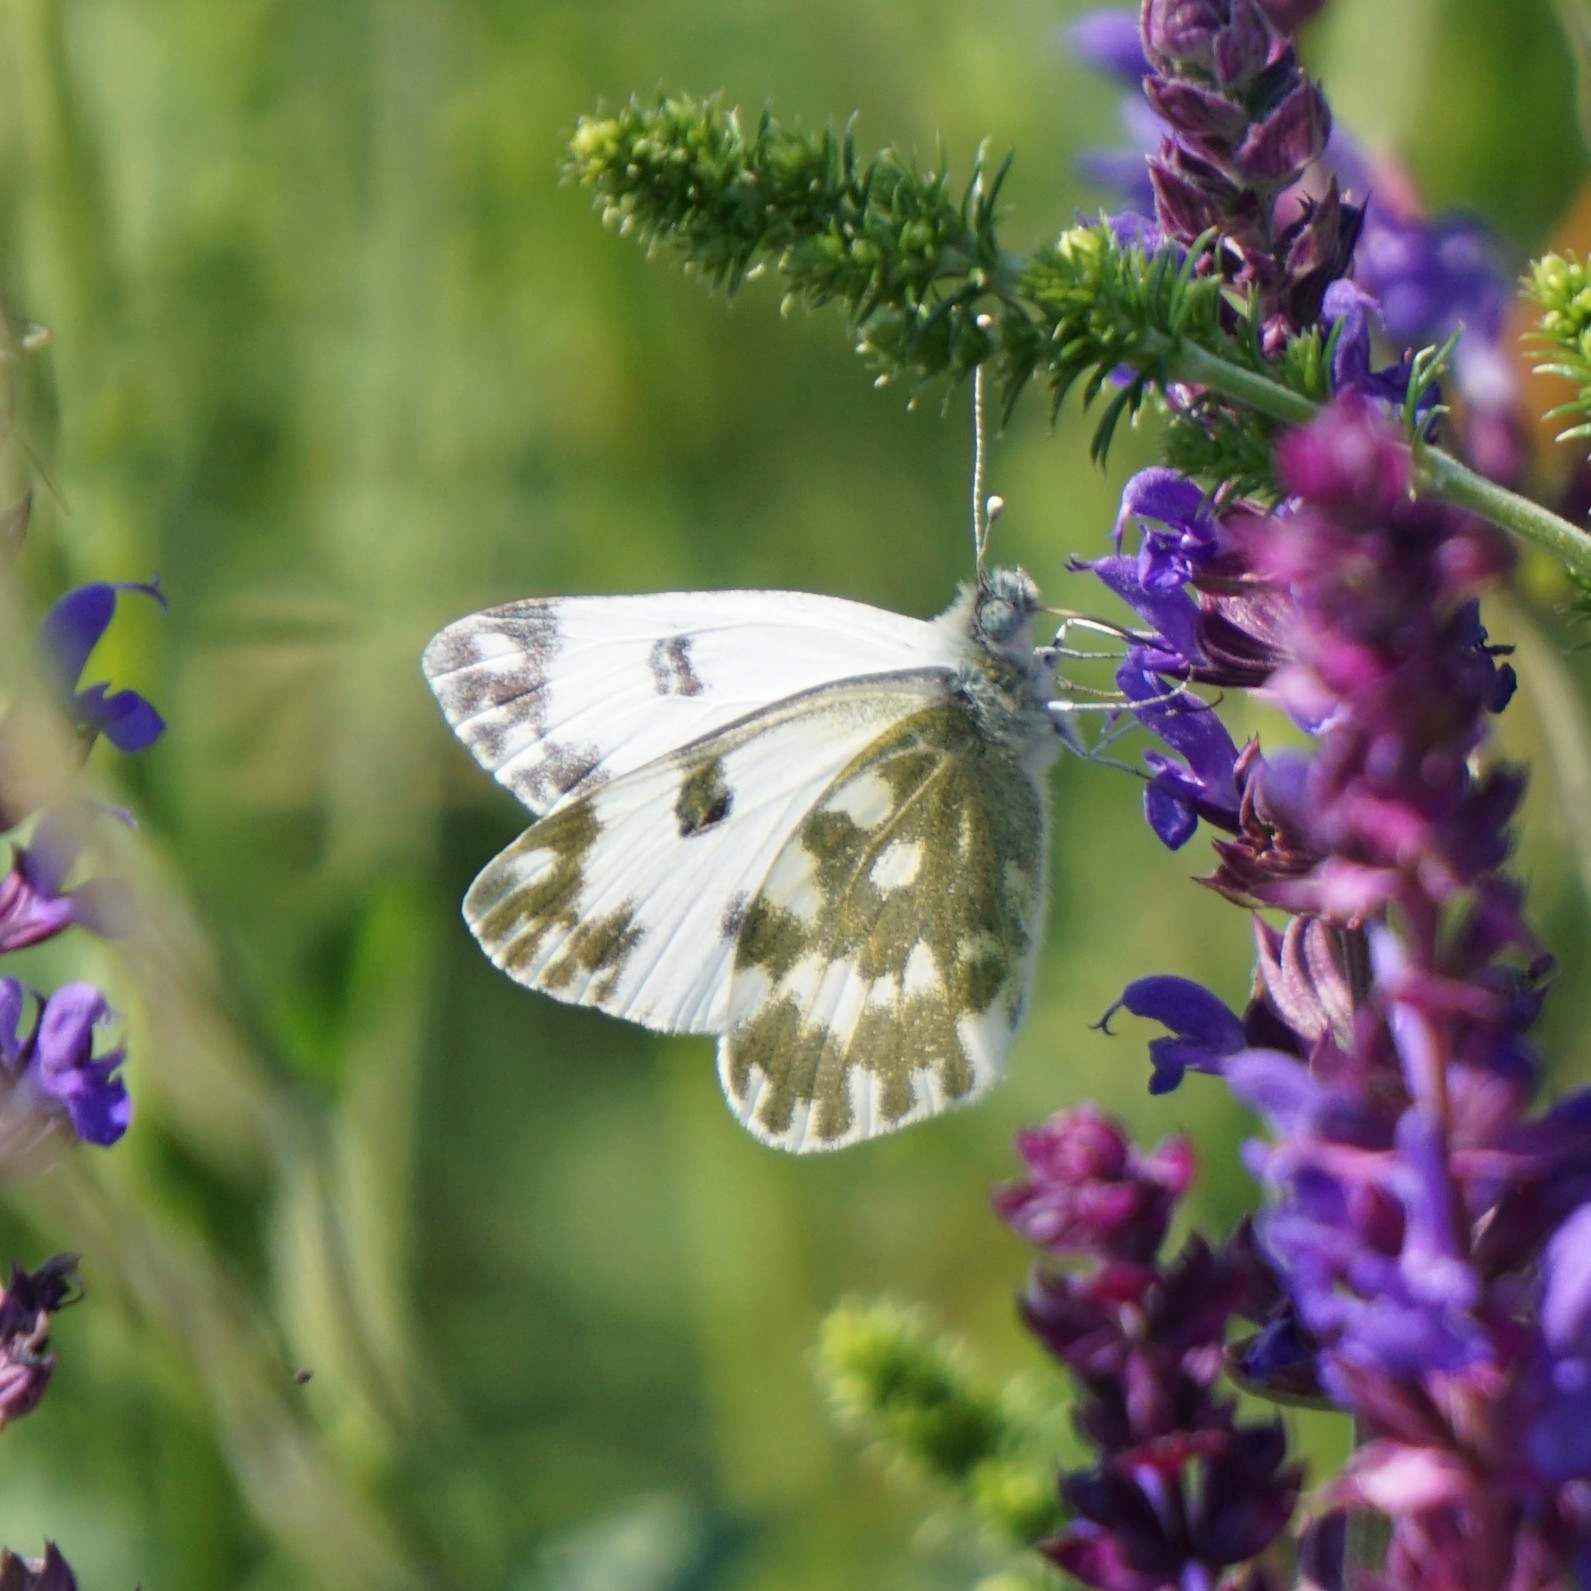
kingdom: Animalia
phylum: Arthropoda
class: Insecta
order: Lepidoptera
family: Pieridae
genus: Pontia
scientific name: Pontia edusa
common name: Eastern bath white
